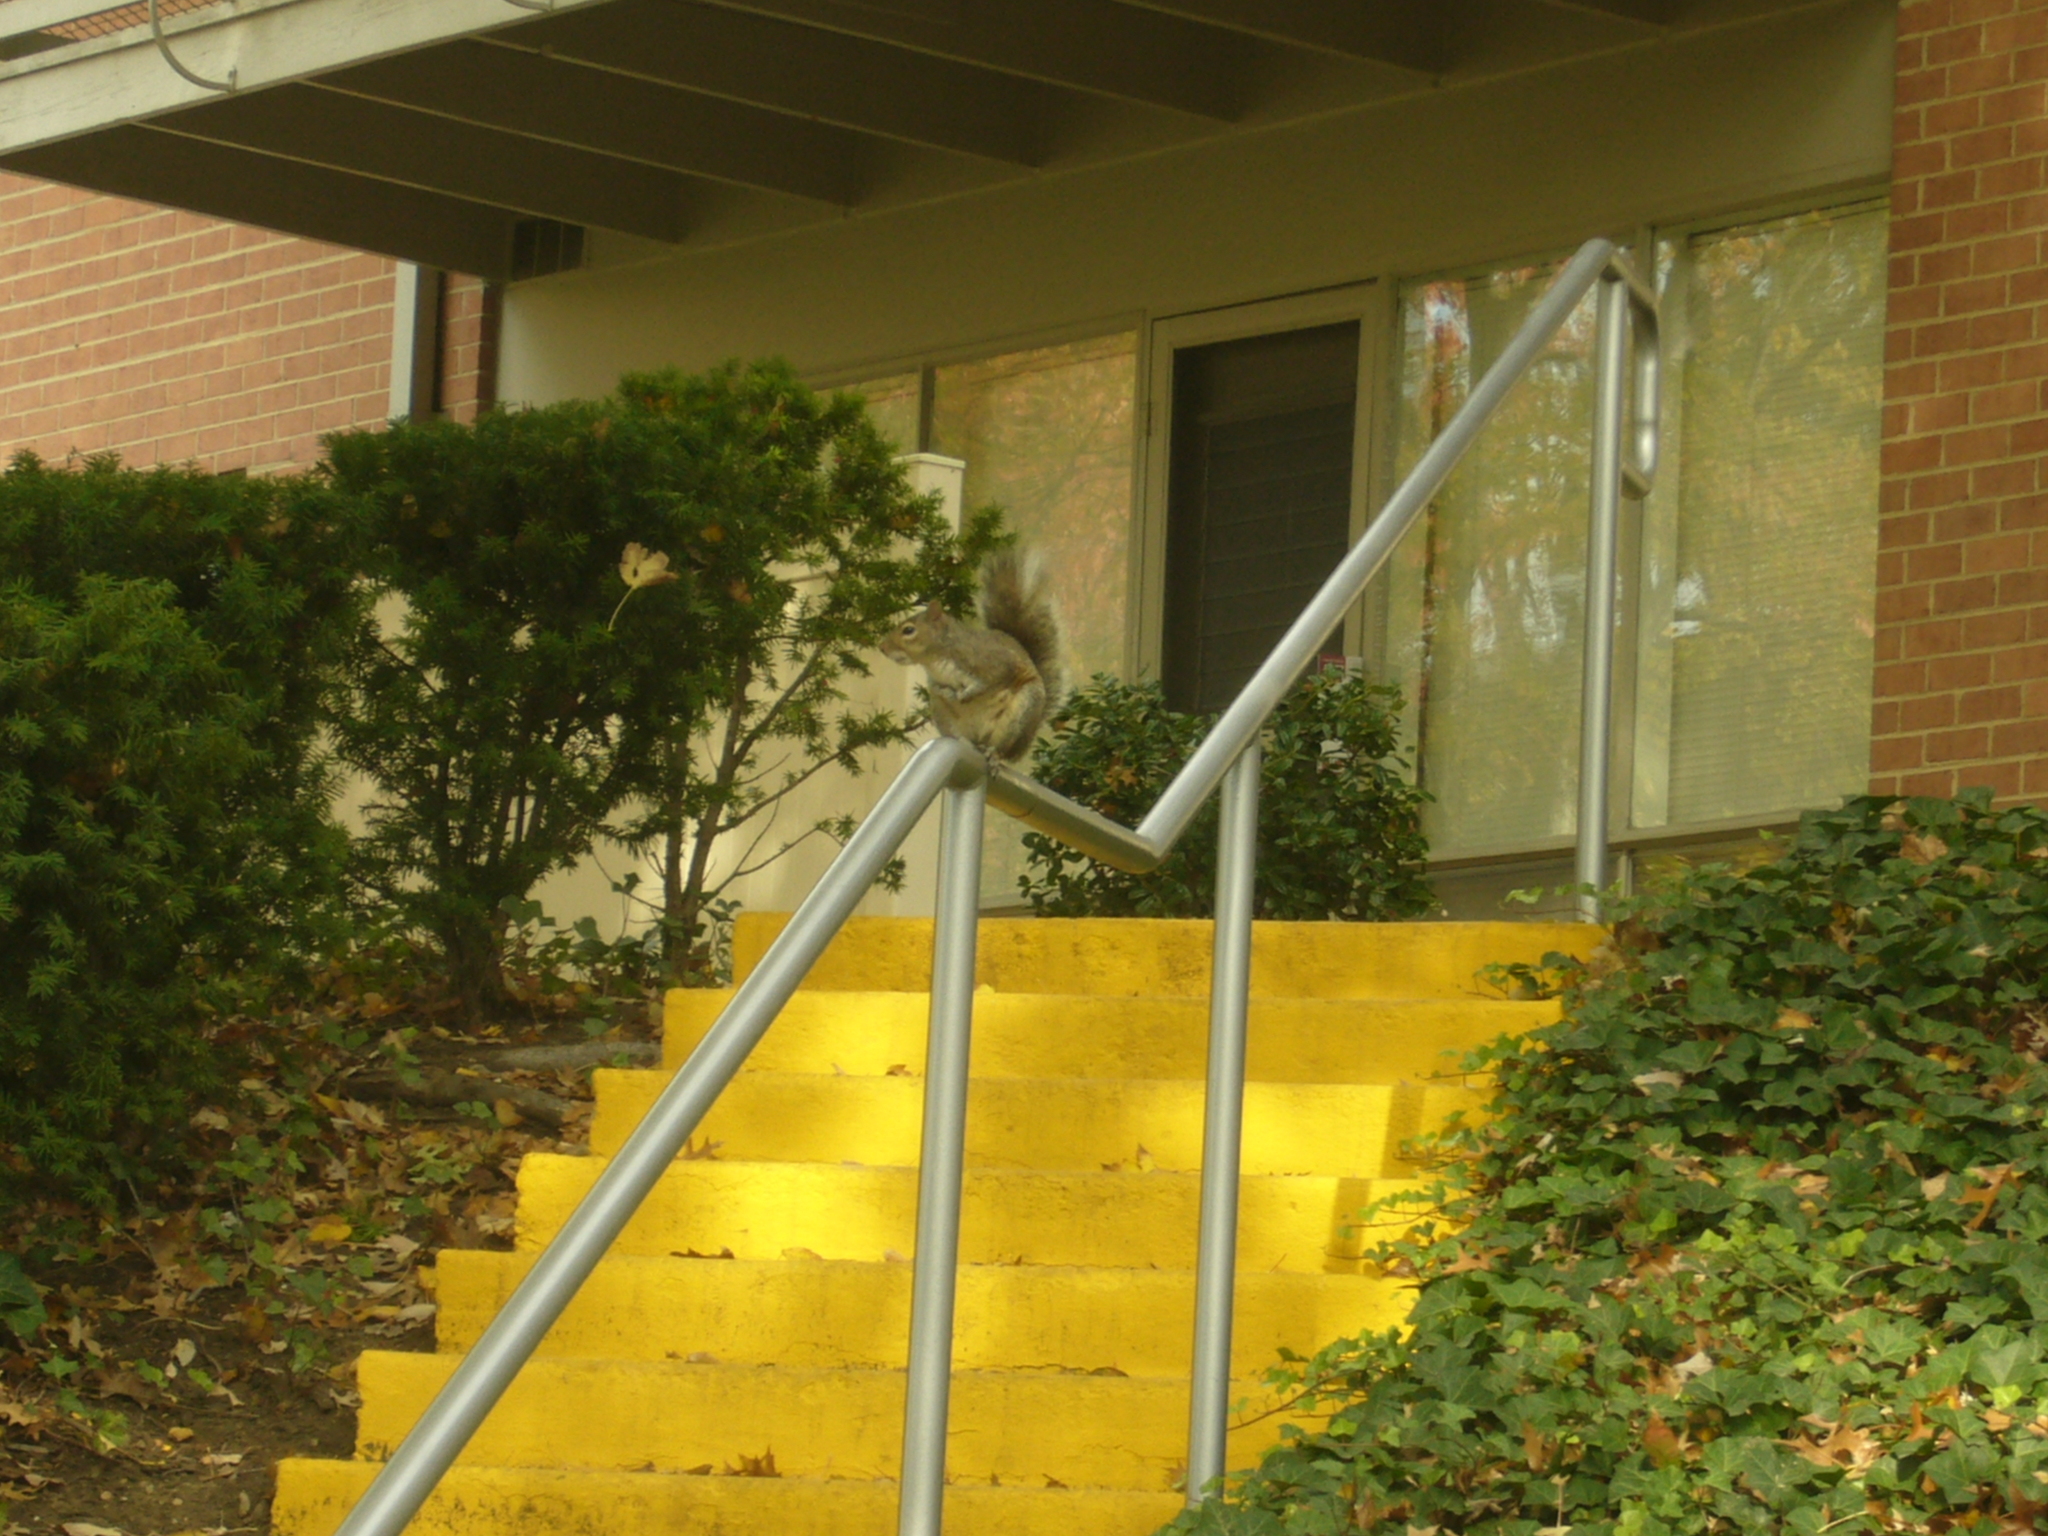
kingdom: Animalia
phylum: Chordata
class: Mammalia
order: Rodentia
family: Sciuridae
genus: Sciurus
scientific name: Sciurus carolinensis
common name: Eastern gray squirrel
